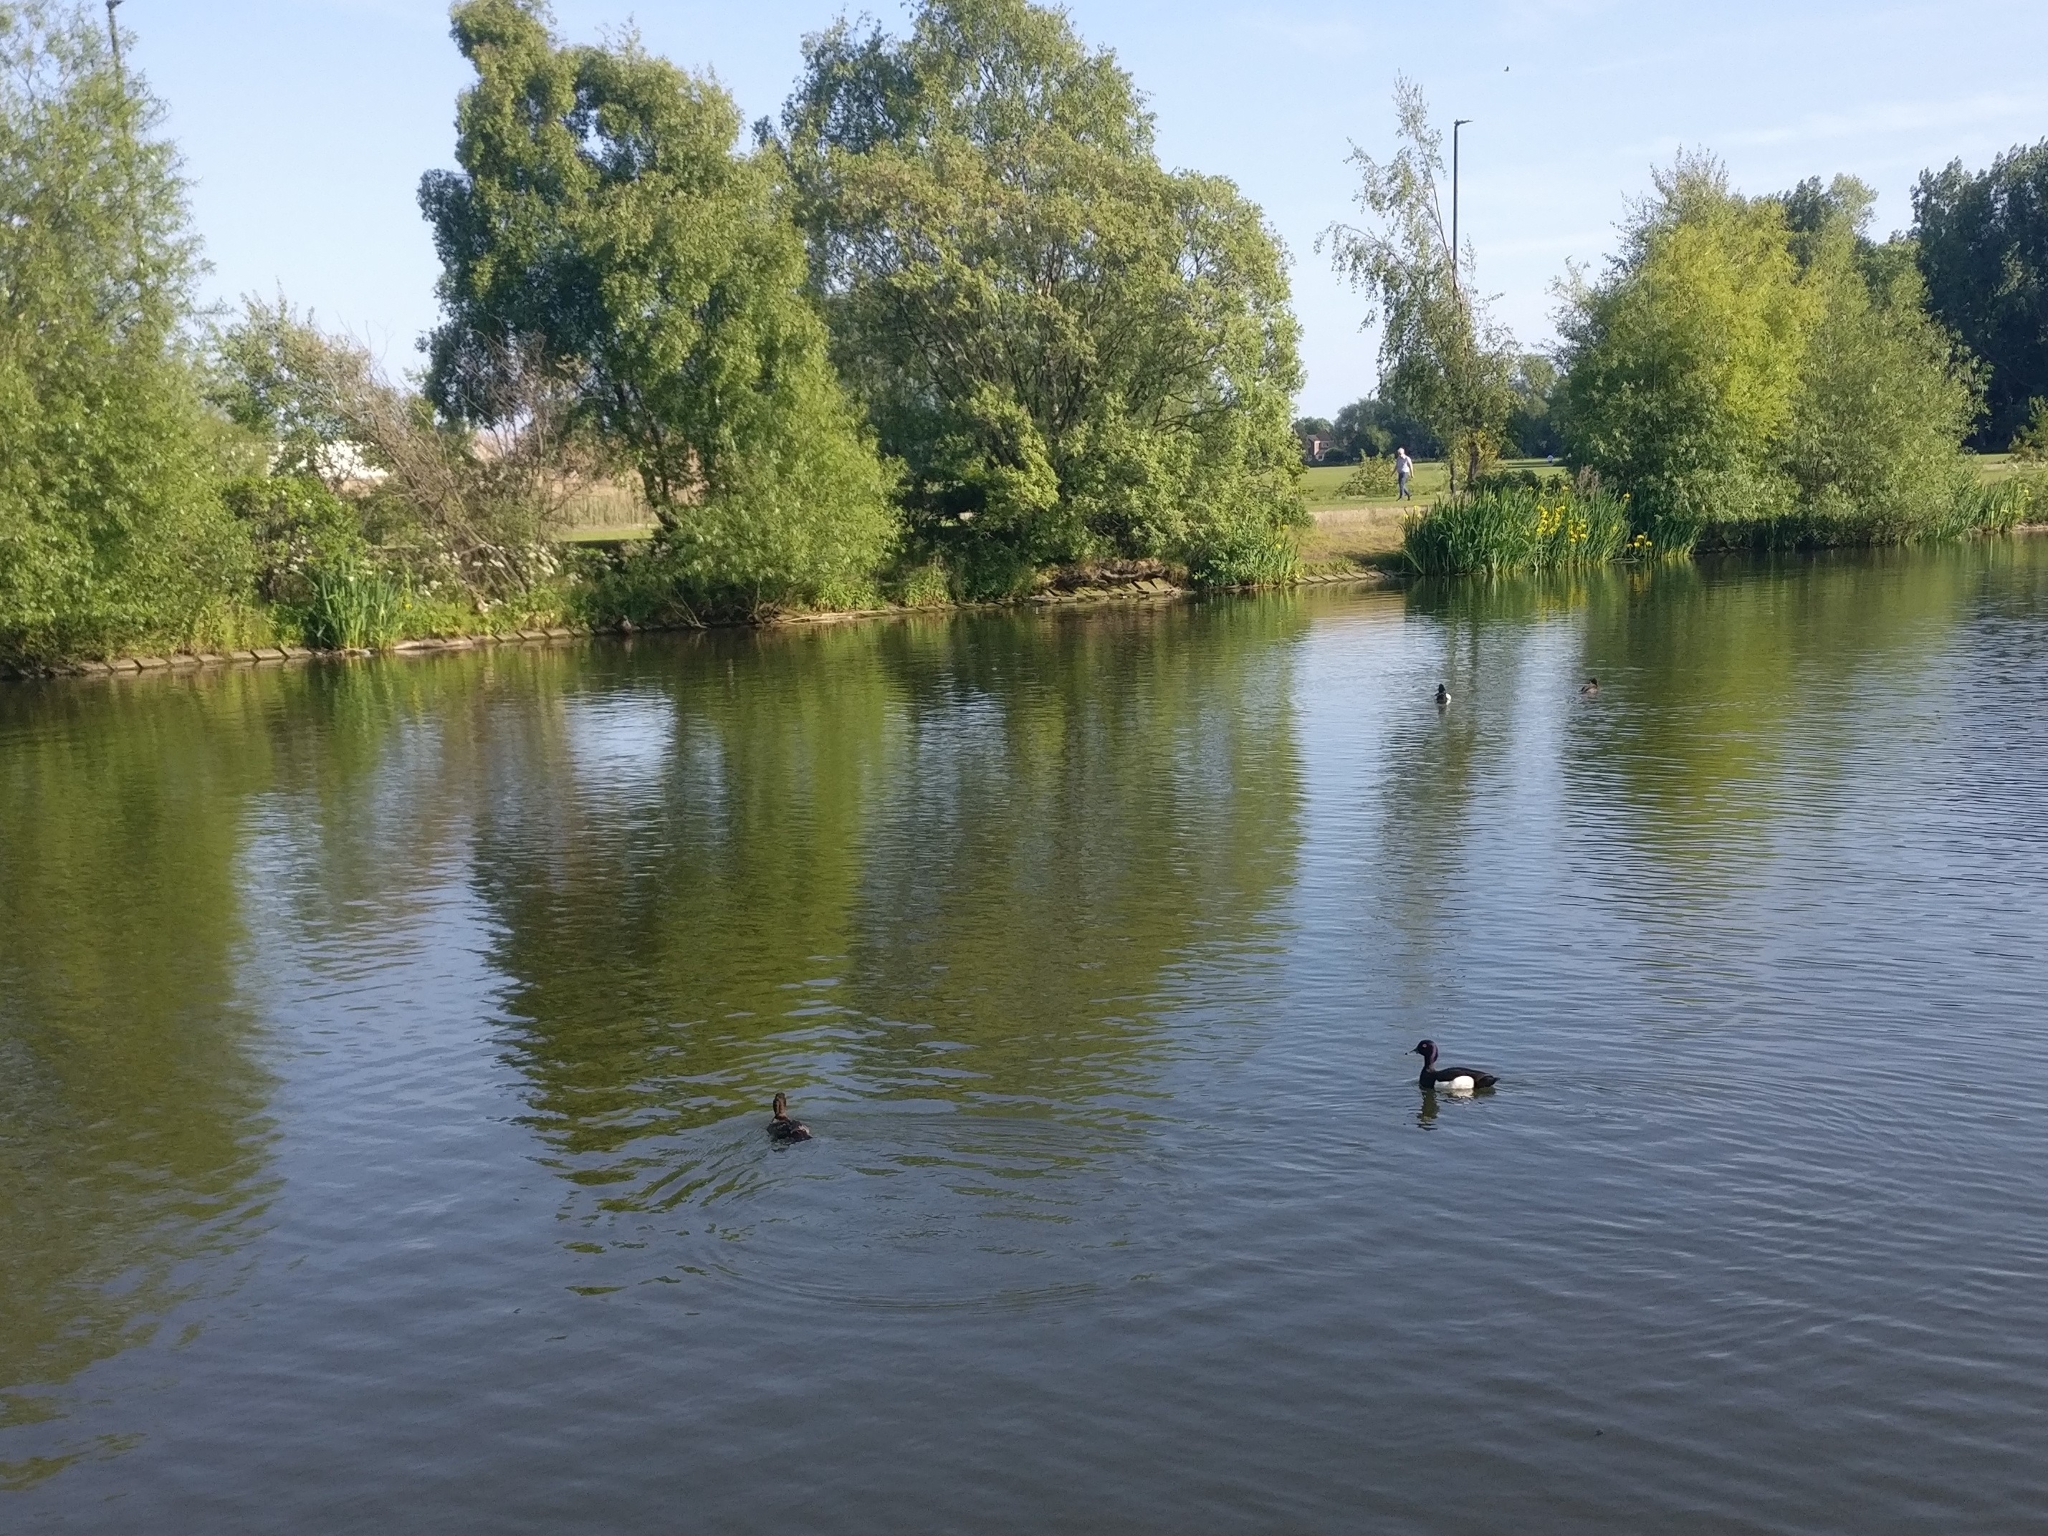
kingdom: Animalia
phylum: Chordata
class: Aves
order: Anseriformes
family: Anatidae
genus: Aythya
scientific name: Aythya fuligula
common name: Tufted duck
